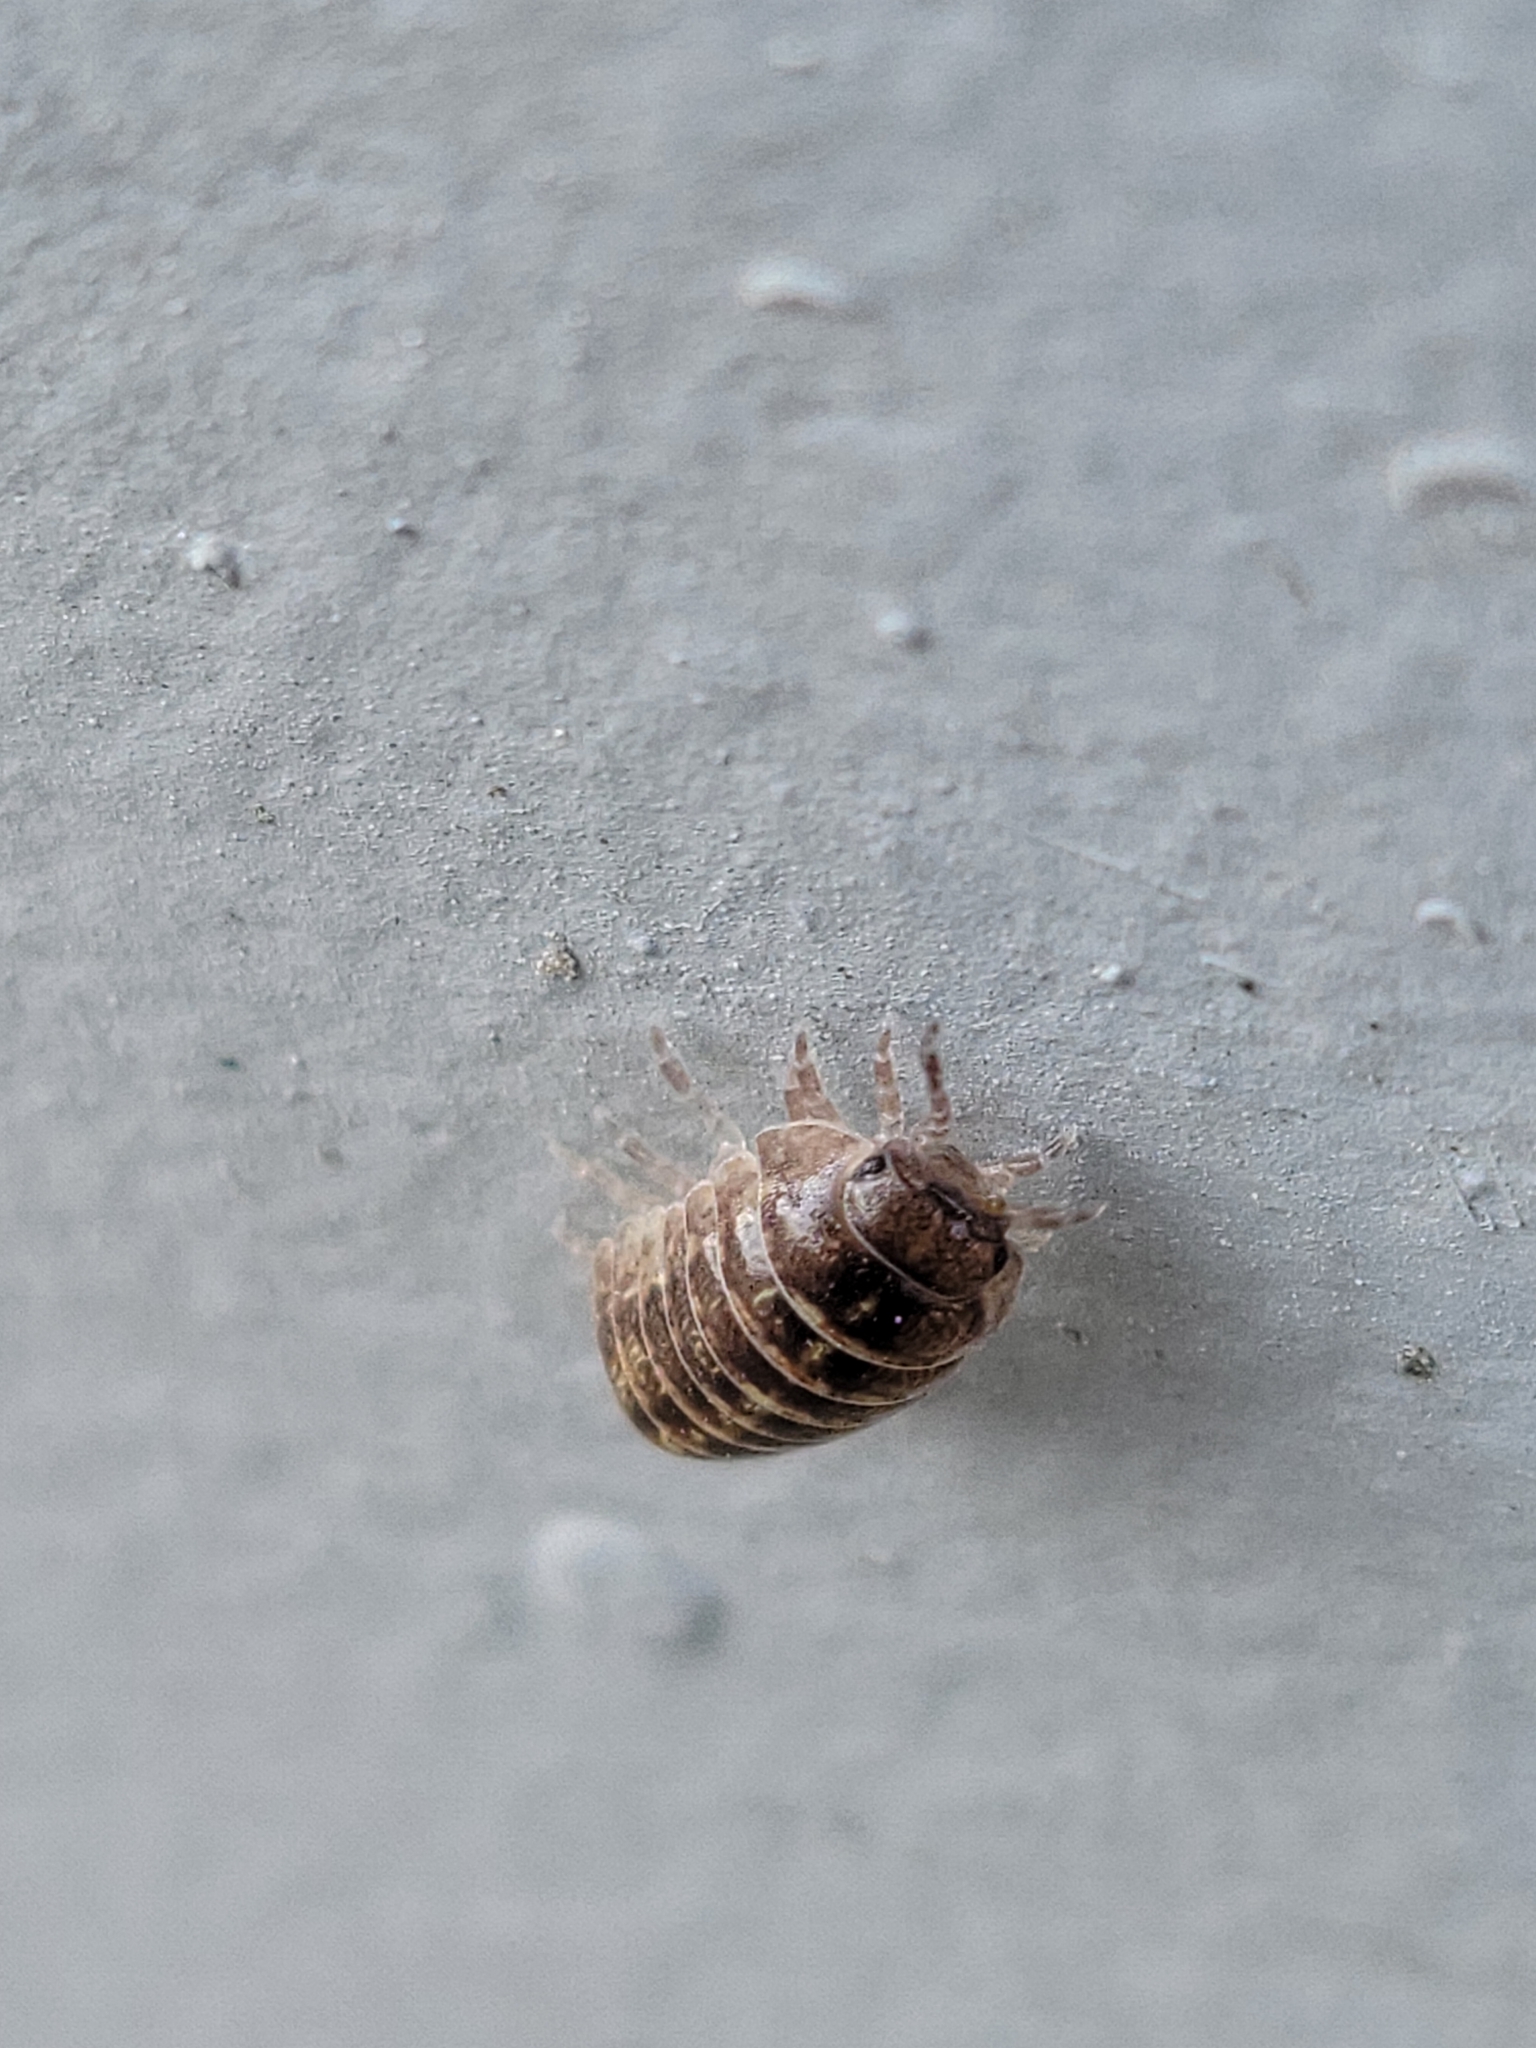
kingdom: Animalia
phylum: Arthropoda
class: Malacostraca
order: Isopoda
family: Armadillidiidae
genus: Armadillidium
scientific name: Armadillidium vulgare
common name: Common pill woodlouse
